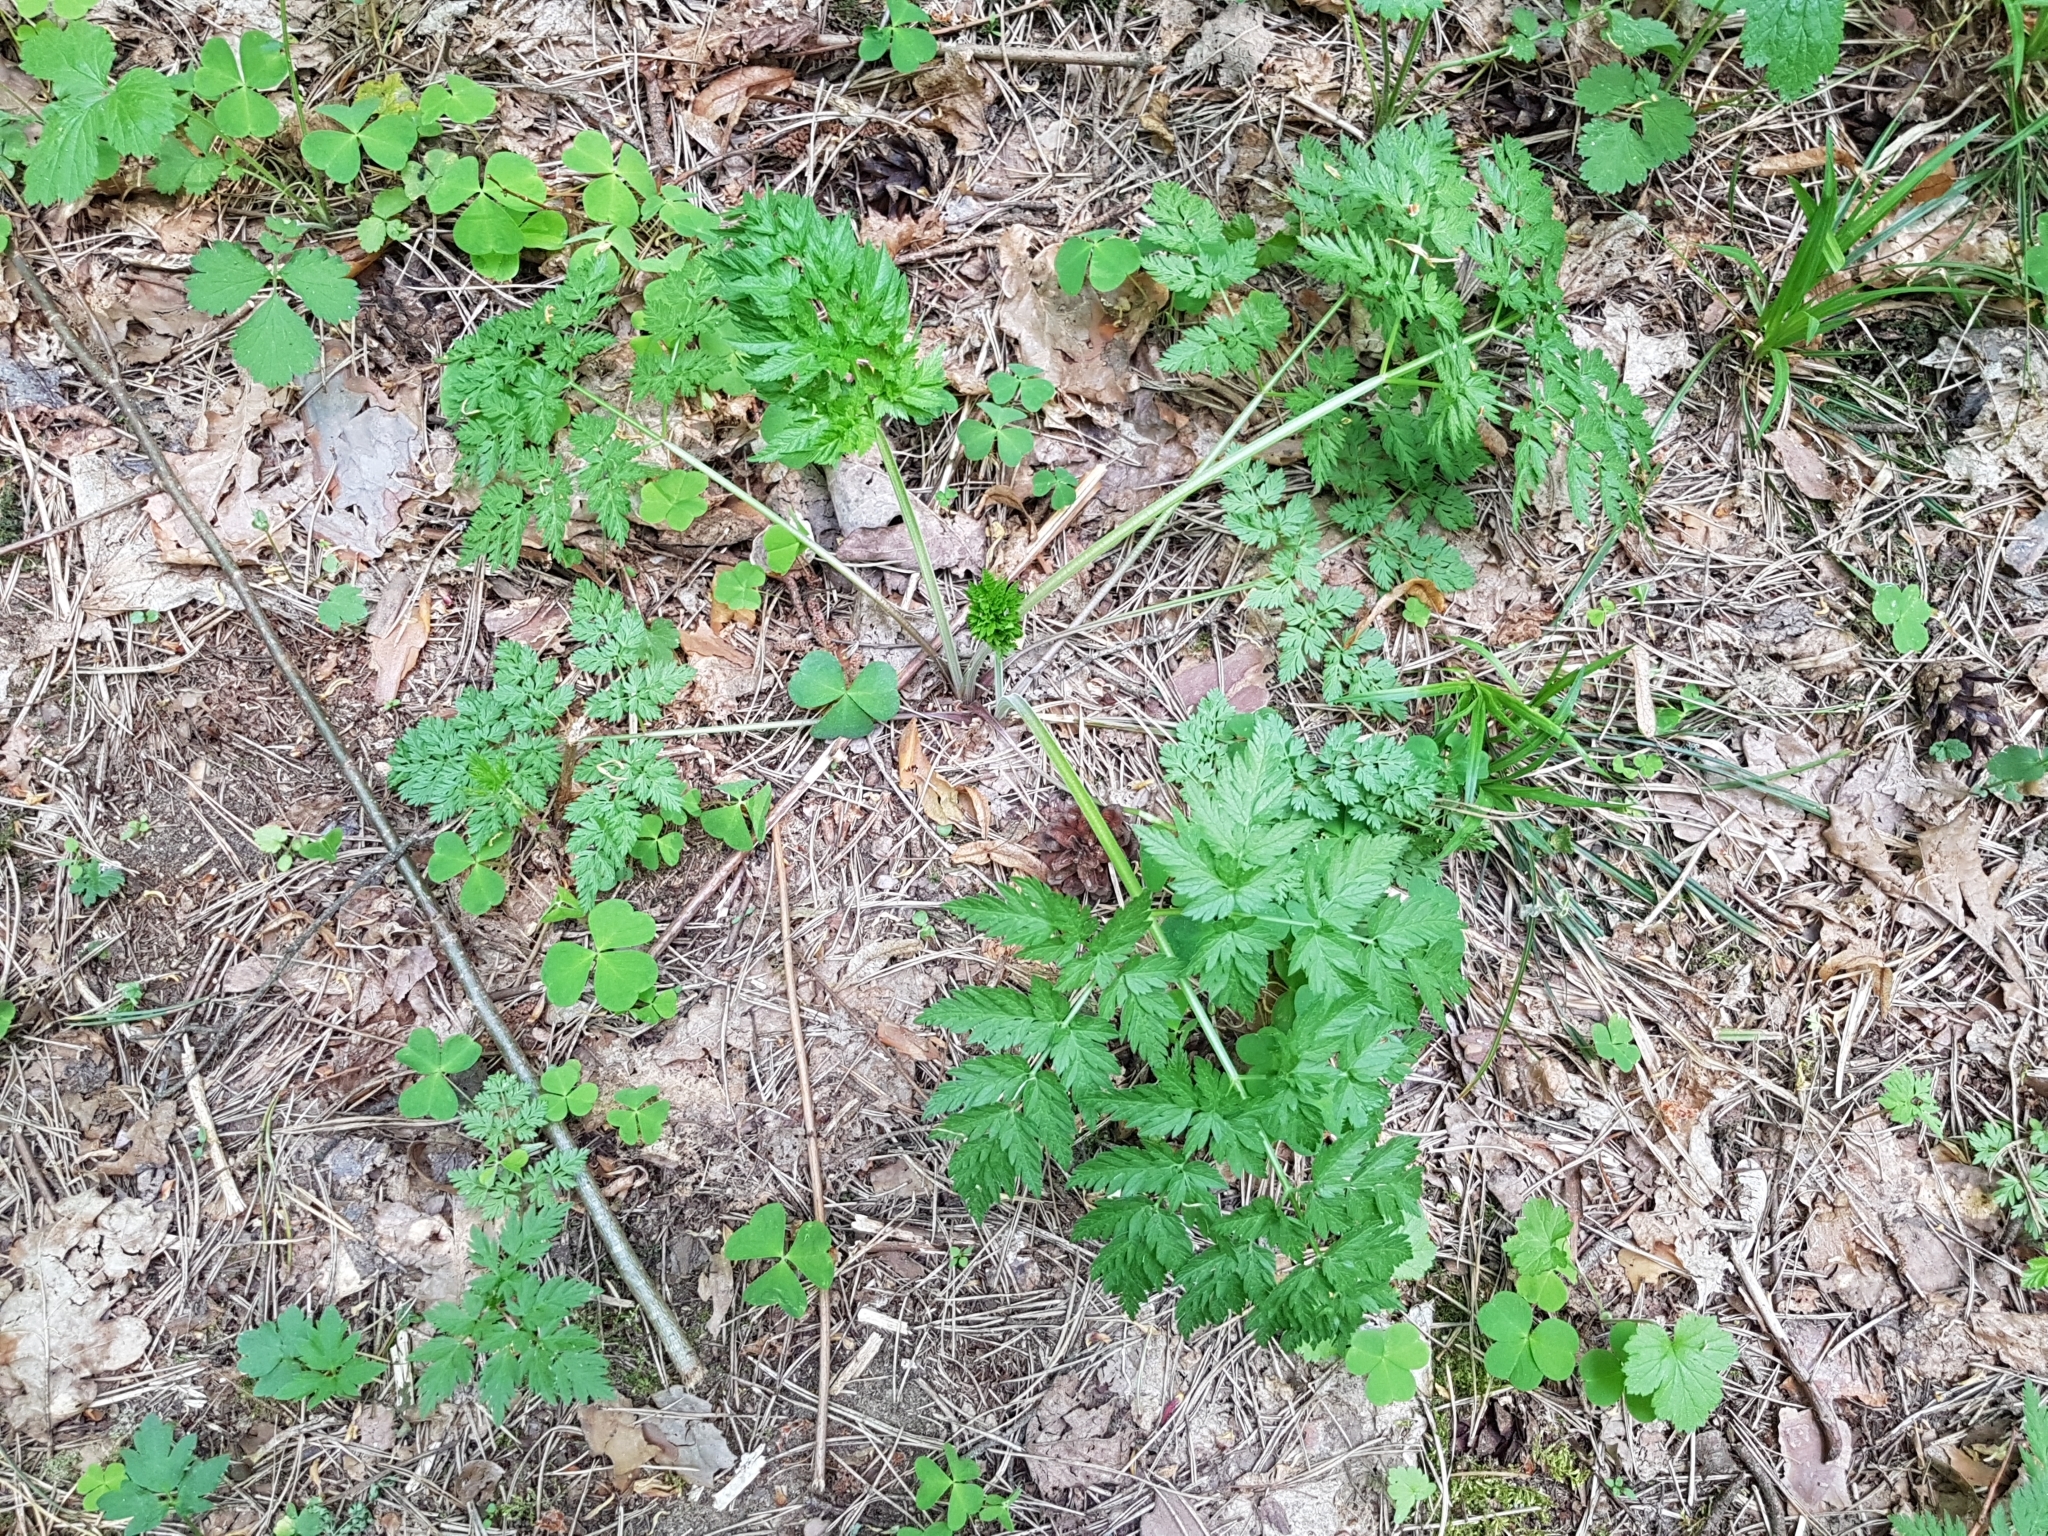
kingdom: Plantae
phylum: Tracheophyta
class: Magnoliopsida
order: Apiales
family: Apiaceae
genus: Anthriscus
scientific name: Anthriscus sylvestris
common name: Cow parsley
